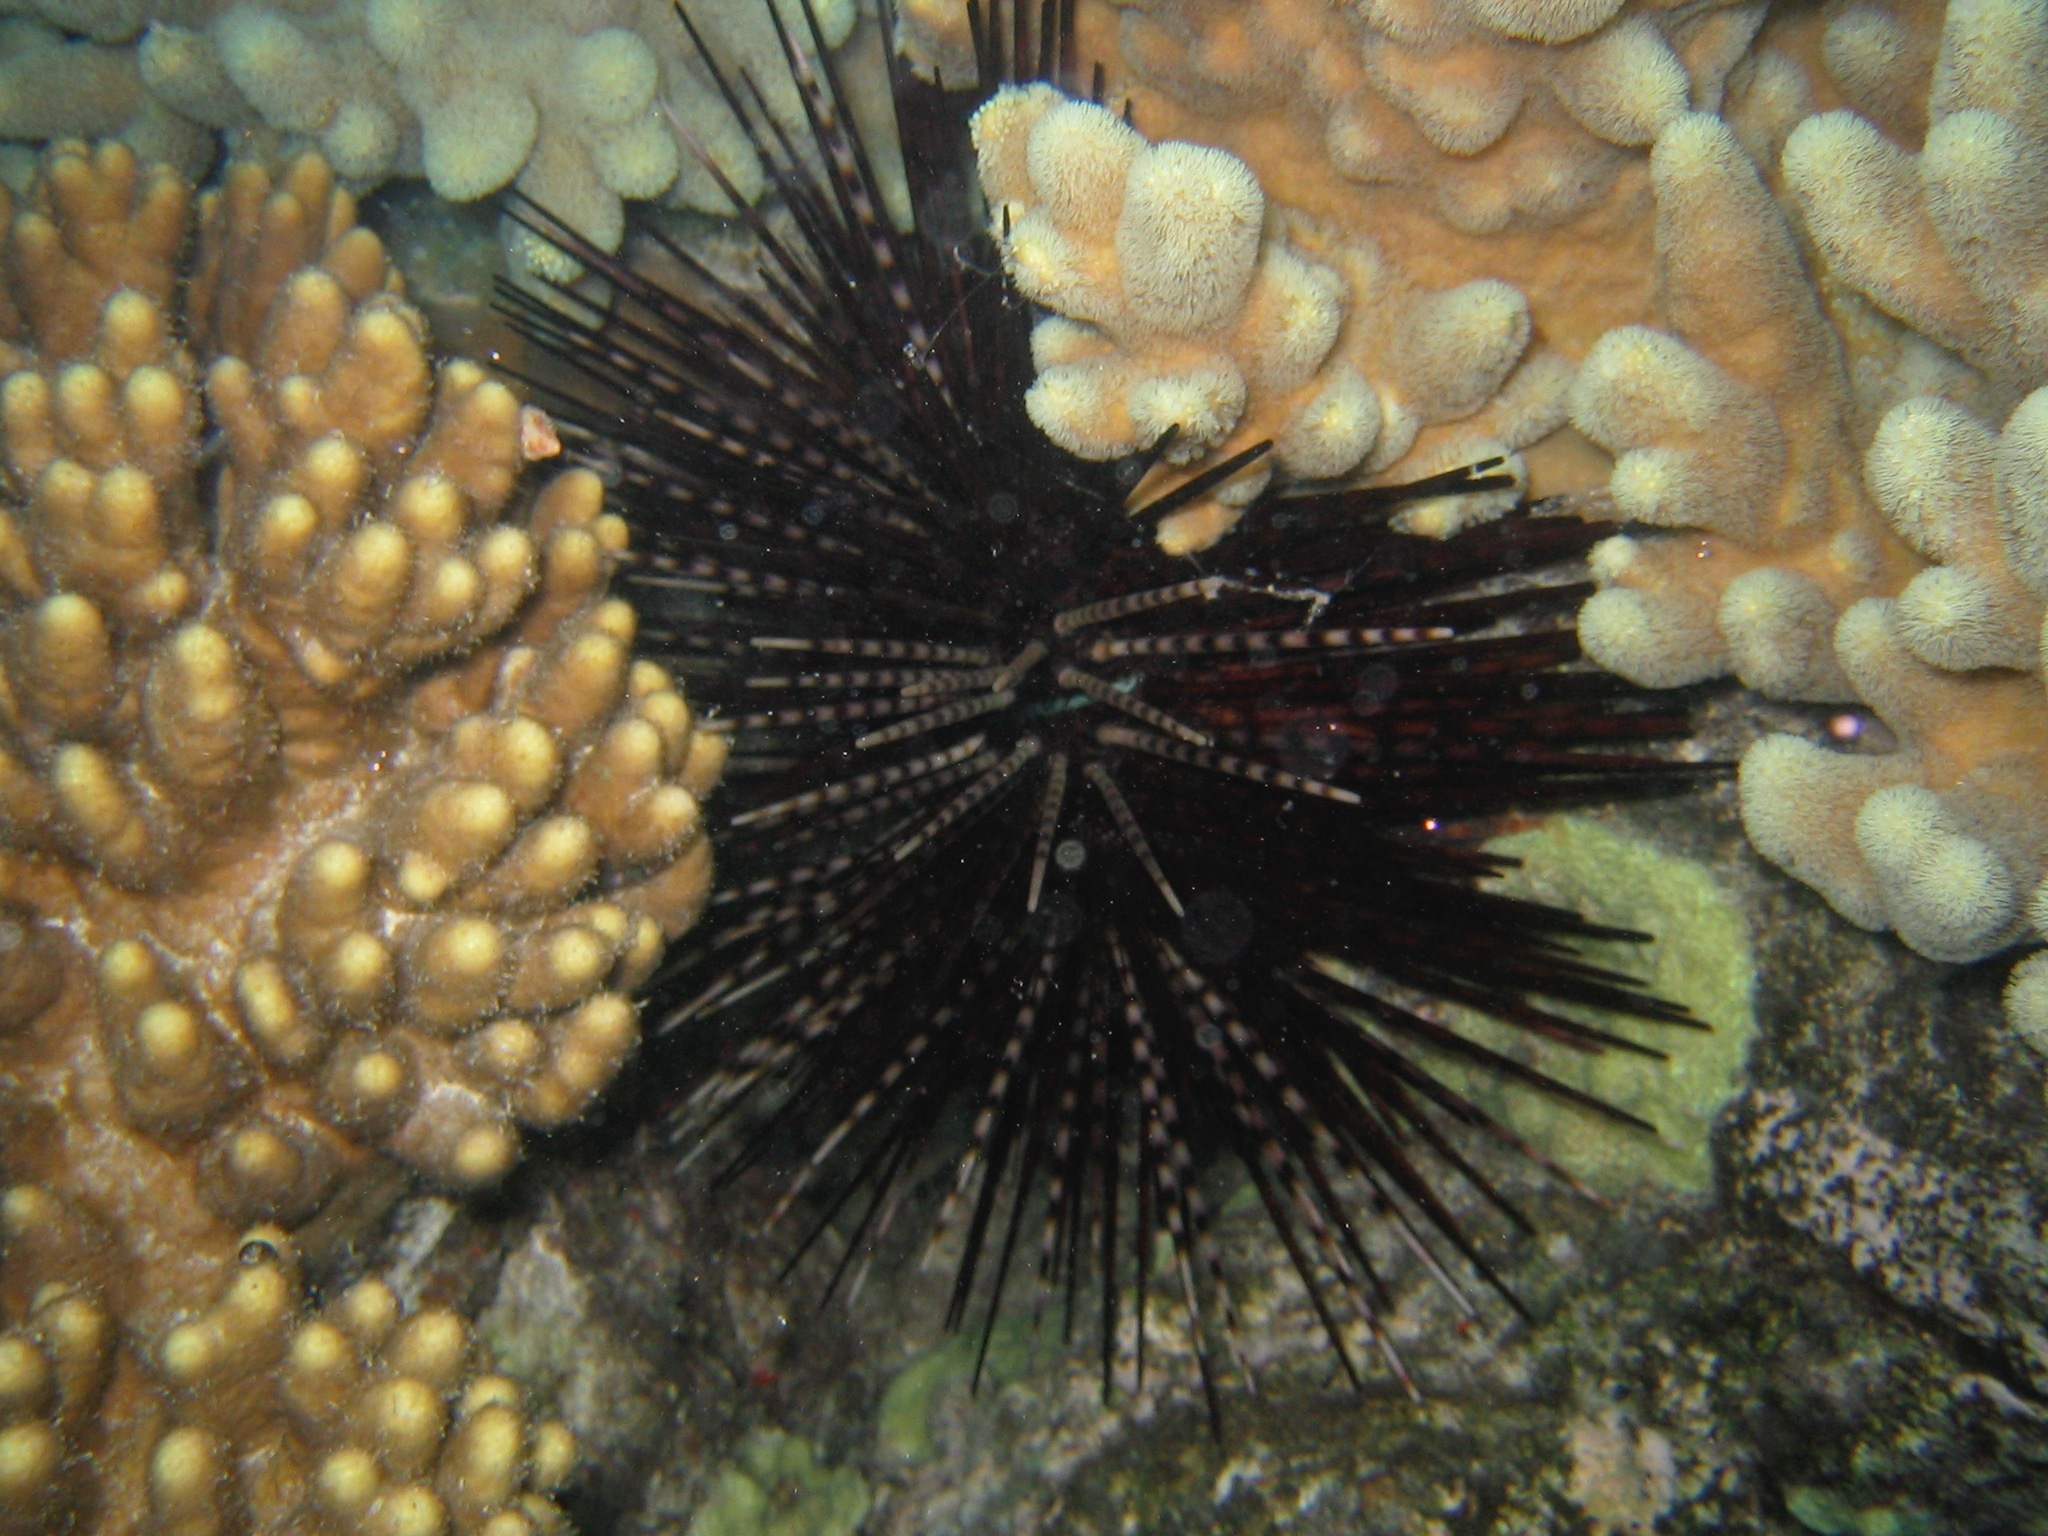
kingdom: Animalia
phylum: Echinodermata
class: Echinoidea
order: Diadematoida
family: Diadematidae
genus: Echinothrix
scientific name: Echinothrix calamaris
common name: Banded sea urchin
